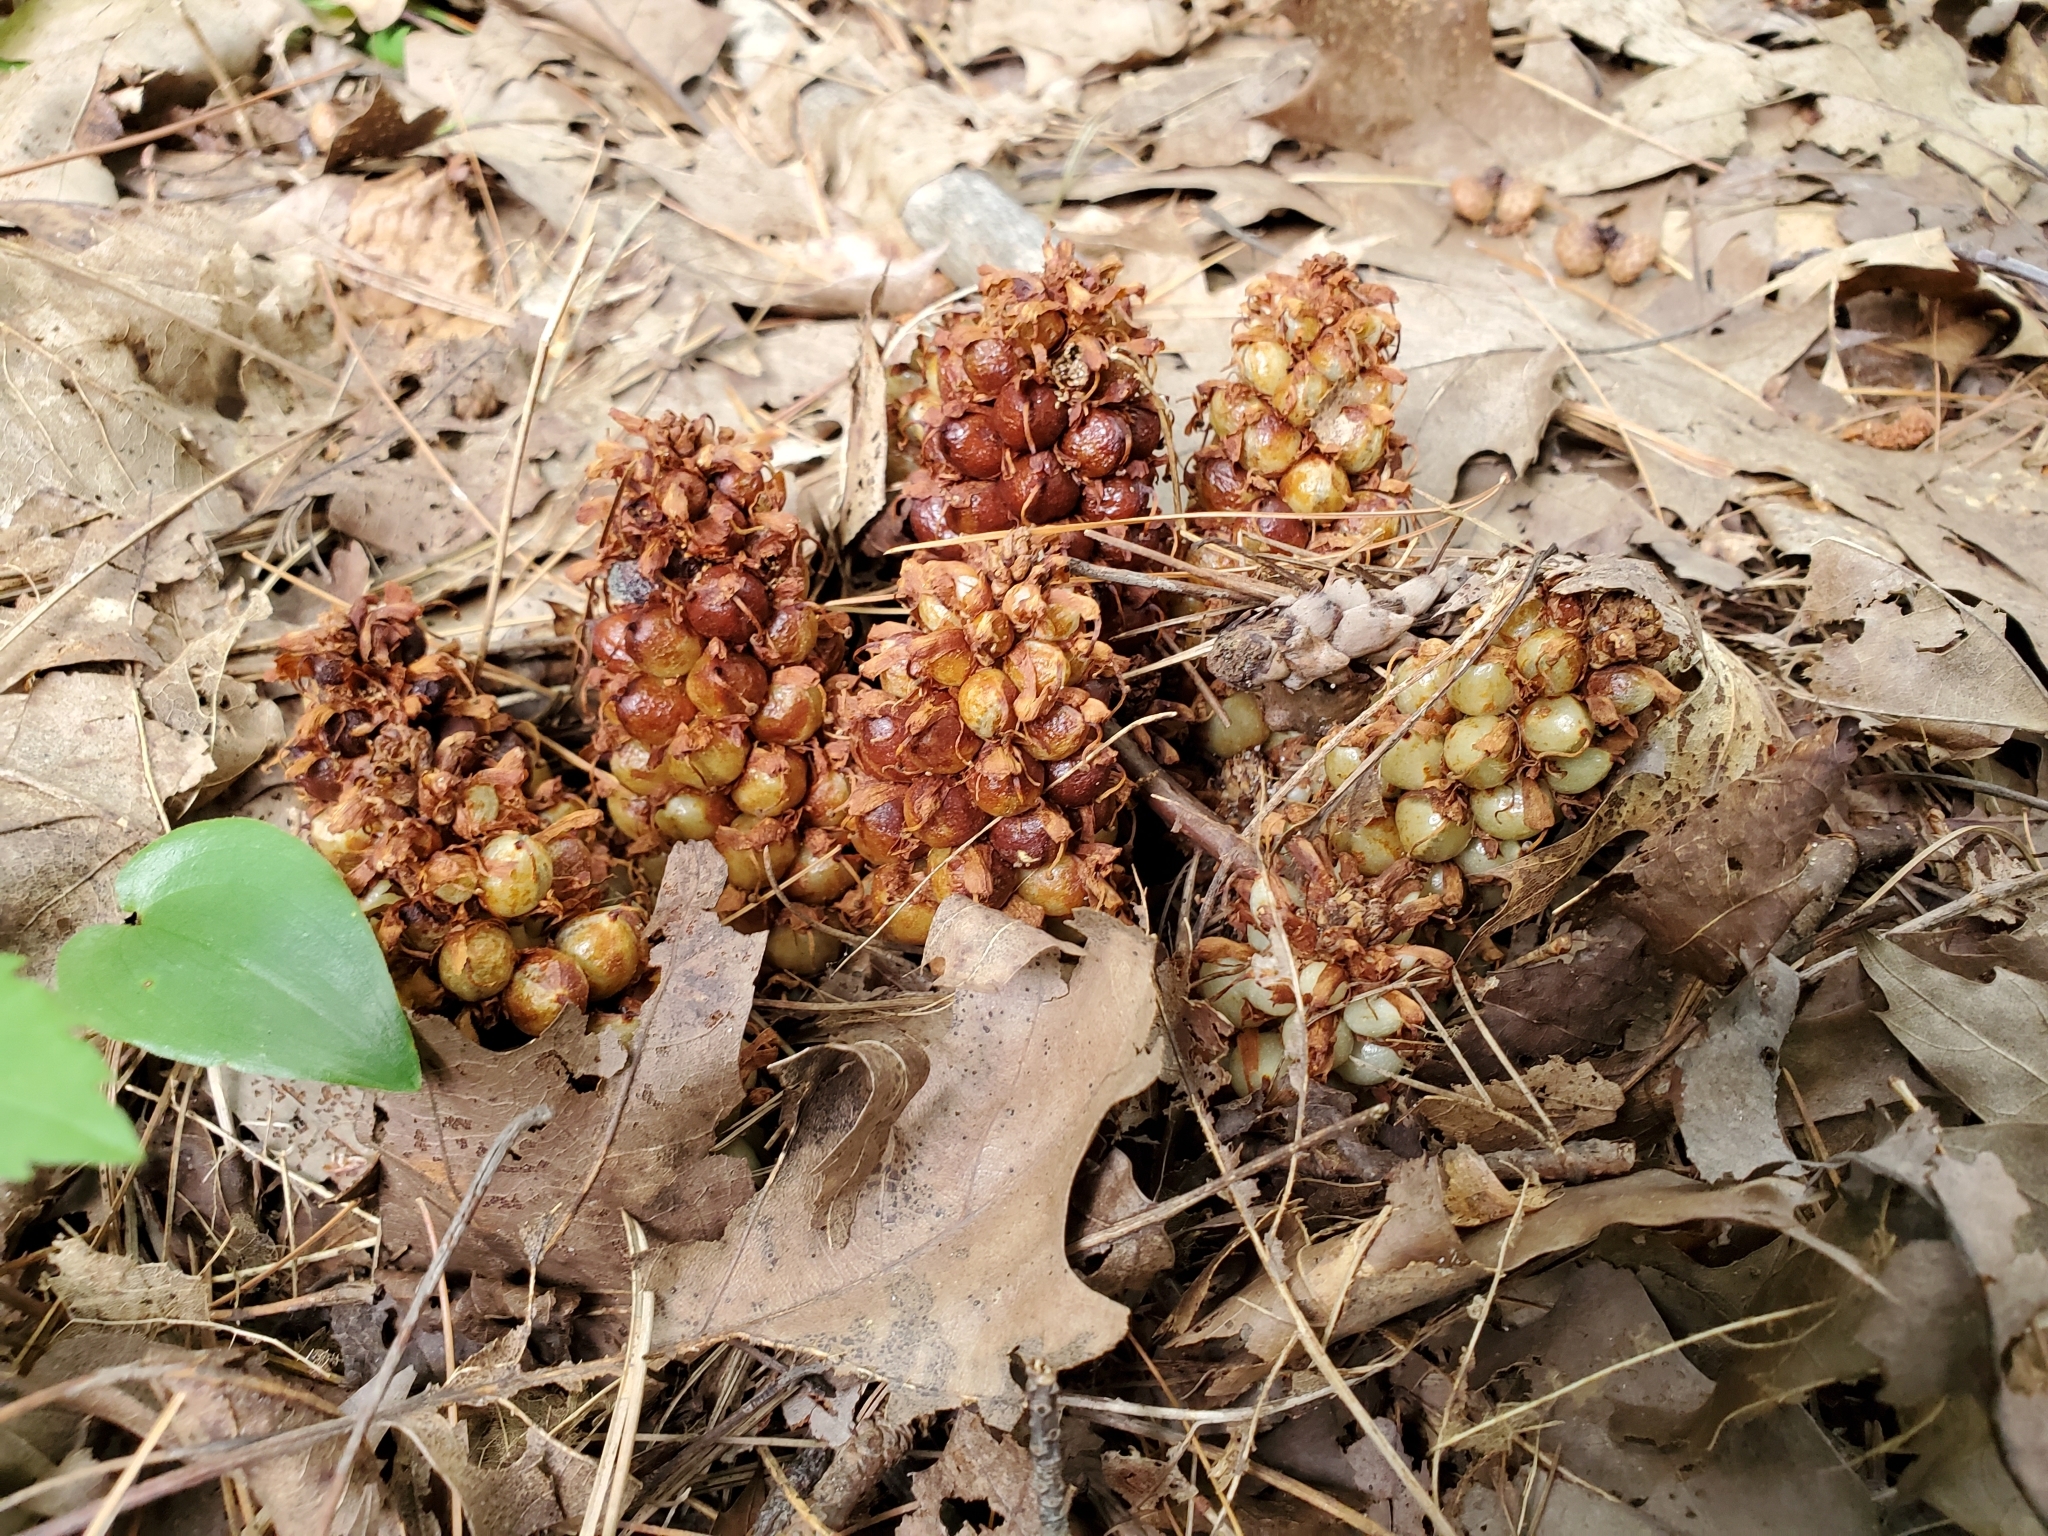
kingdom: Plantae
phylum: Tracheophyta
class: Magnoliopsida
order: Lamiales
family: Orobanchaceae
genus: Conopholis
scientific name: Conopholis americana
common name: American cancer-root
